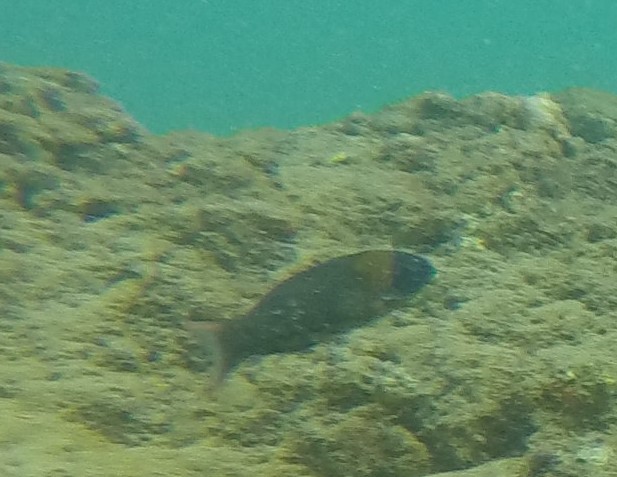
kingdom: Animalia
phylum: Chordata
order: Perciformes
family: Labridae
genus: Thalassoma
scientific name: Thalassoma duperrey
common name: Saddle wrasse
